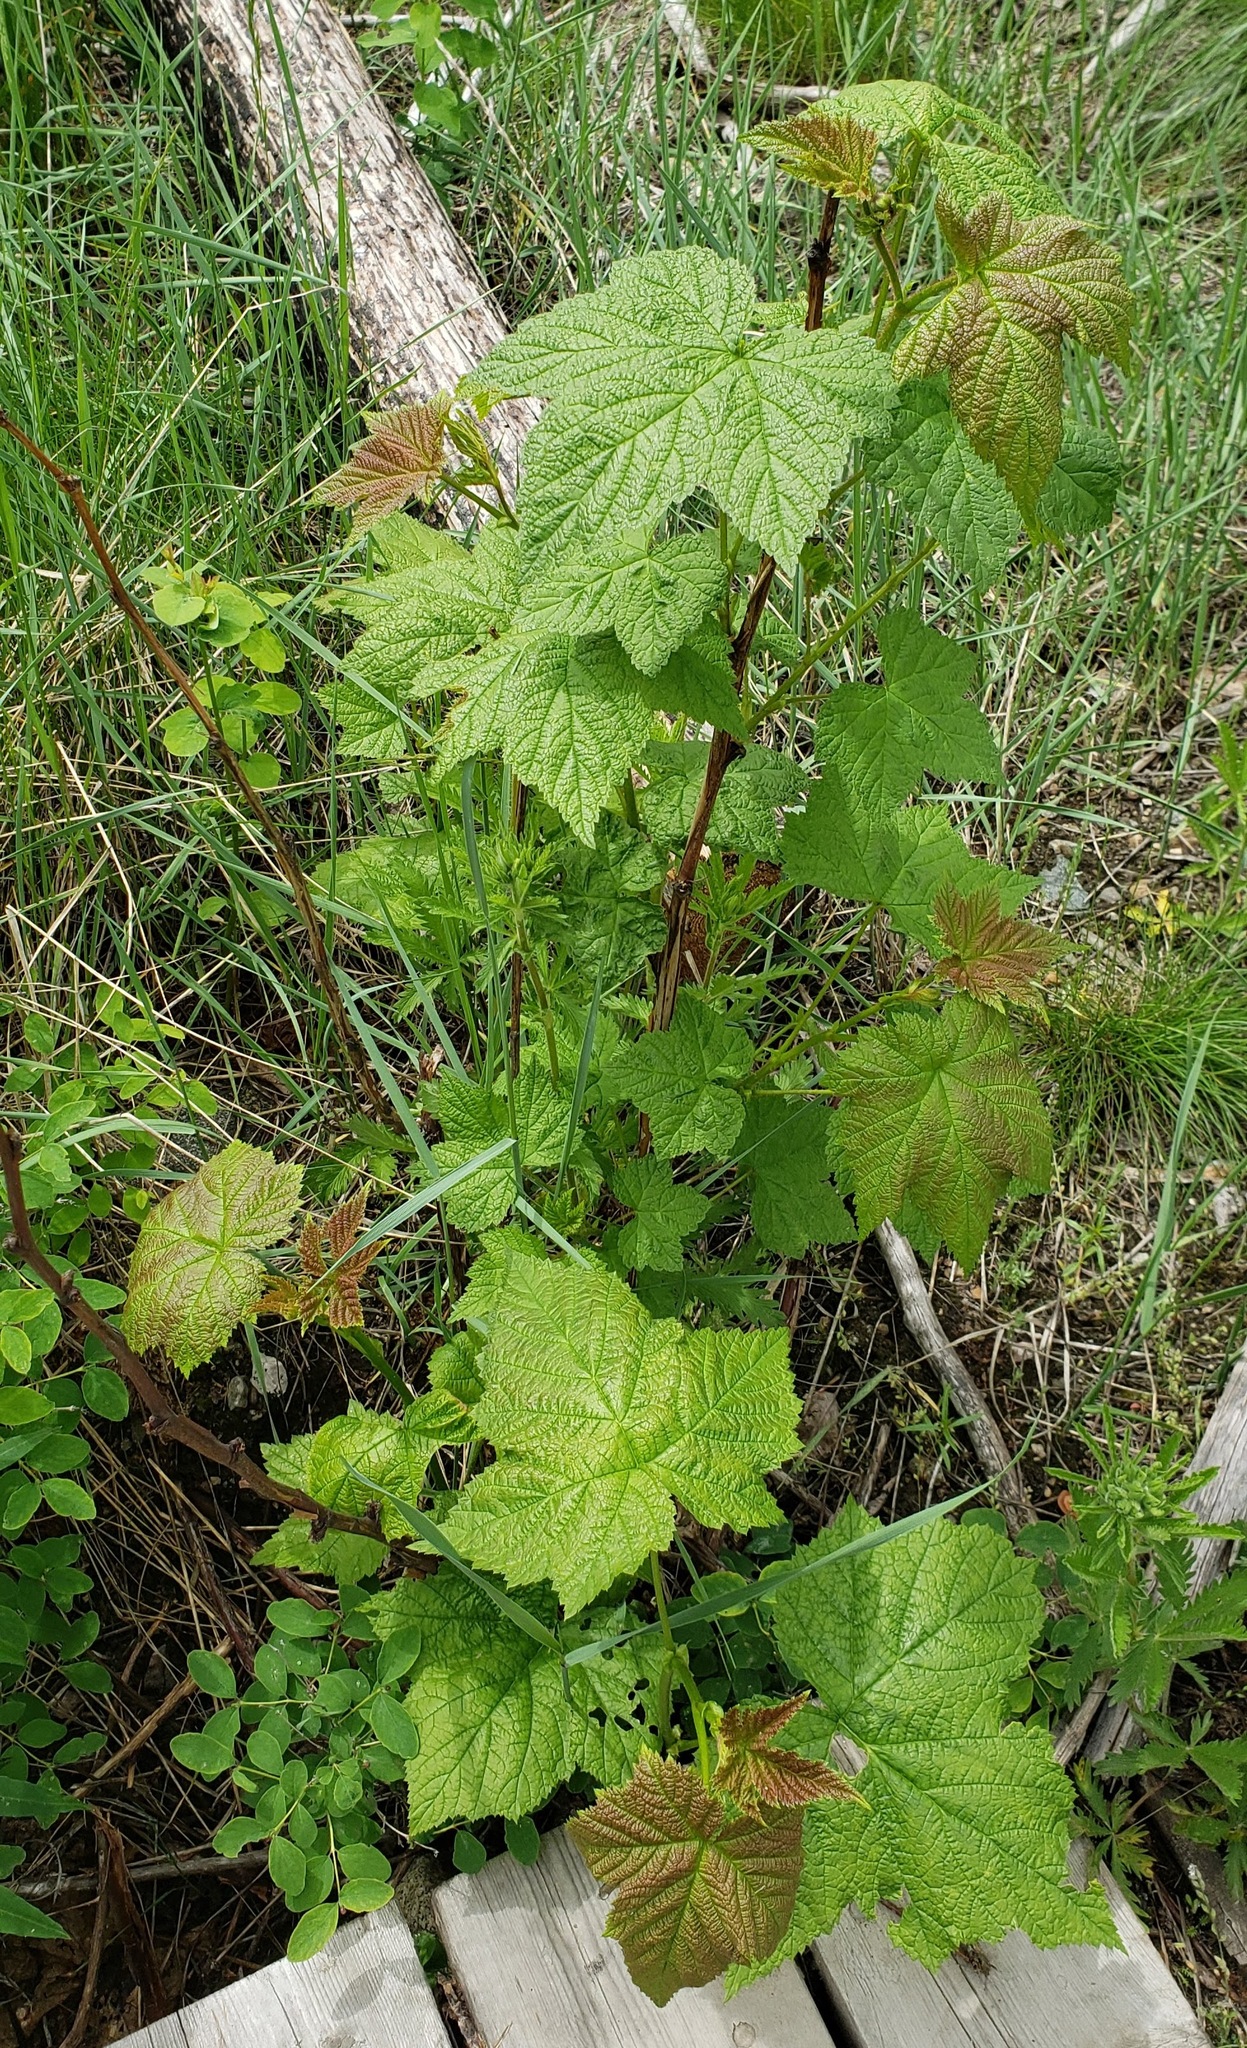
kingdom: Plantae
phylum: Tracheophyta
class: Magnoliopsida
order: Rosales
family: Rosaceae
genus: Rubus
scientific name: Rubus parviflorus
